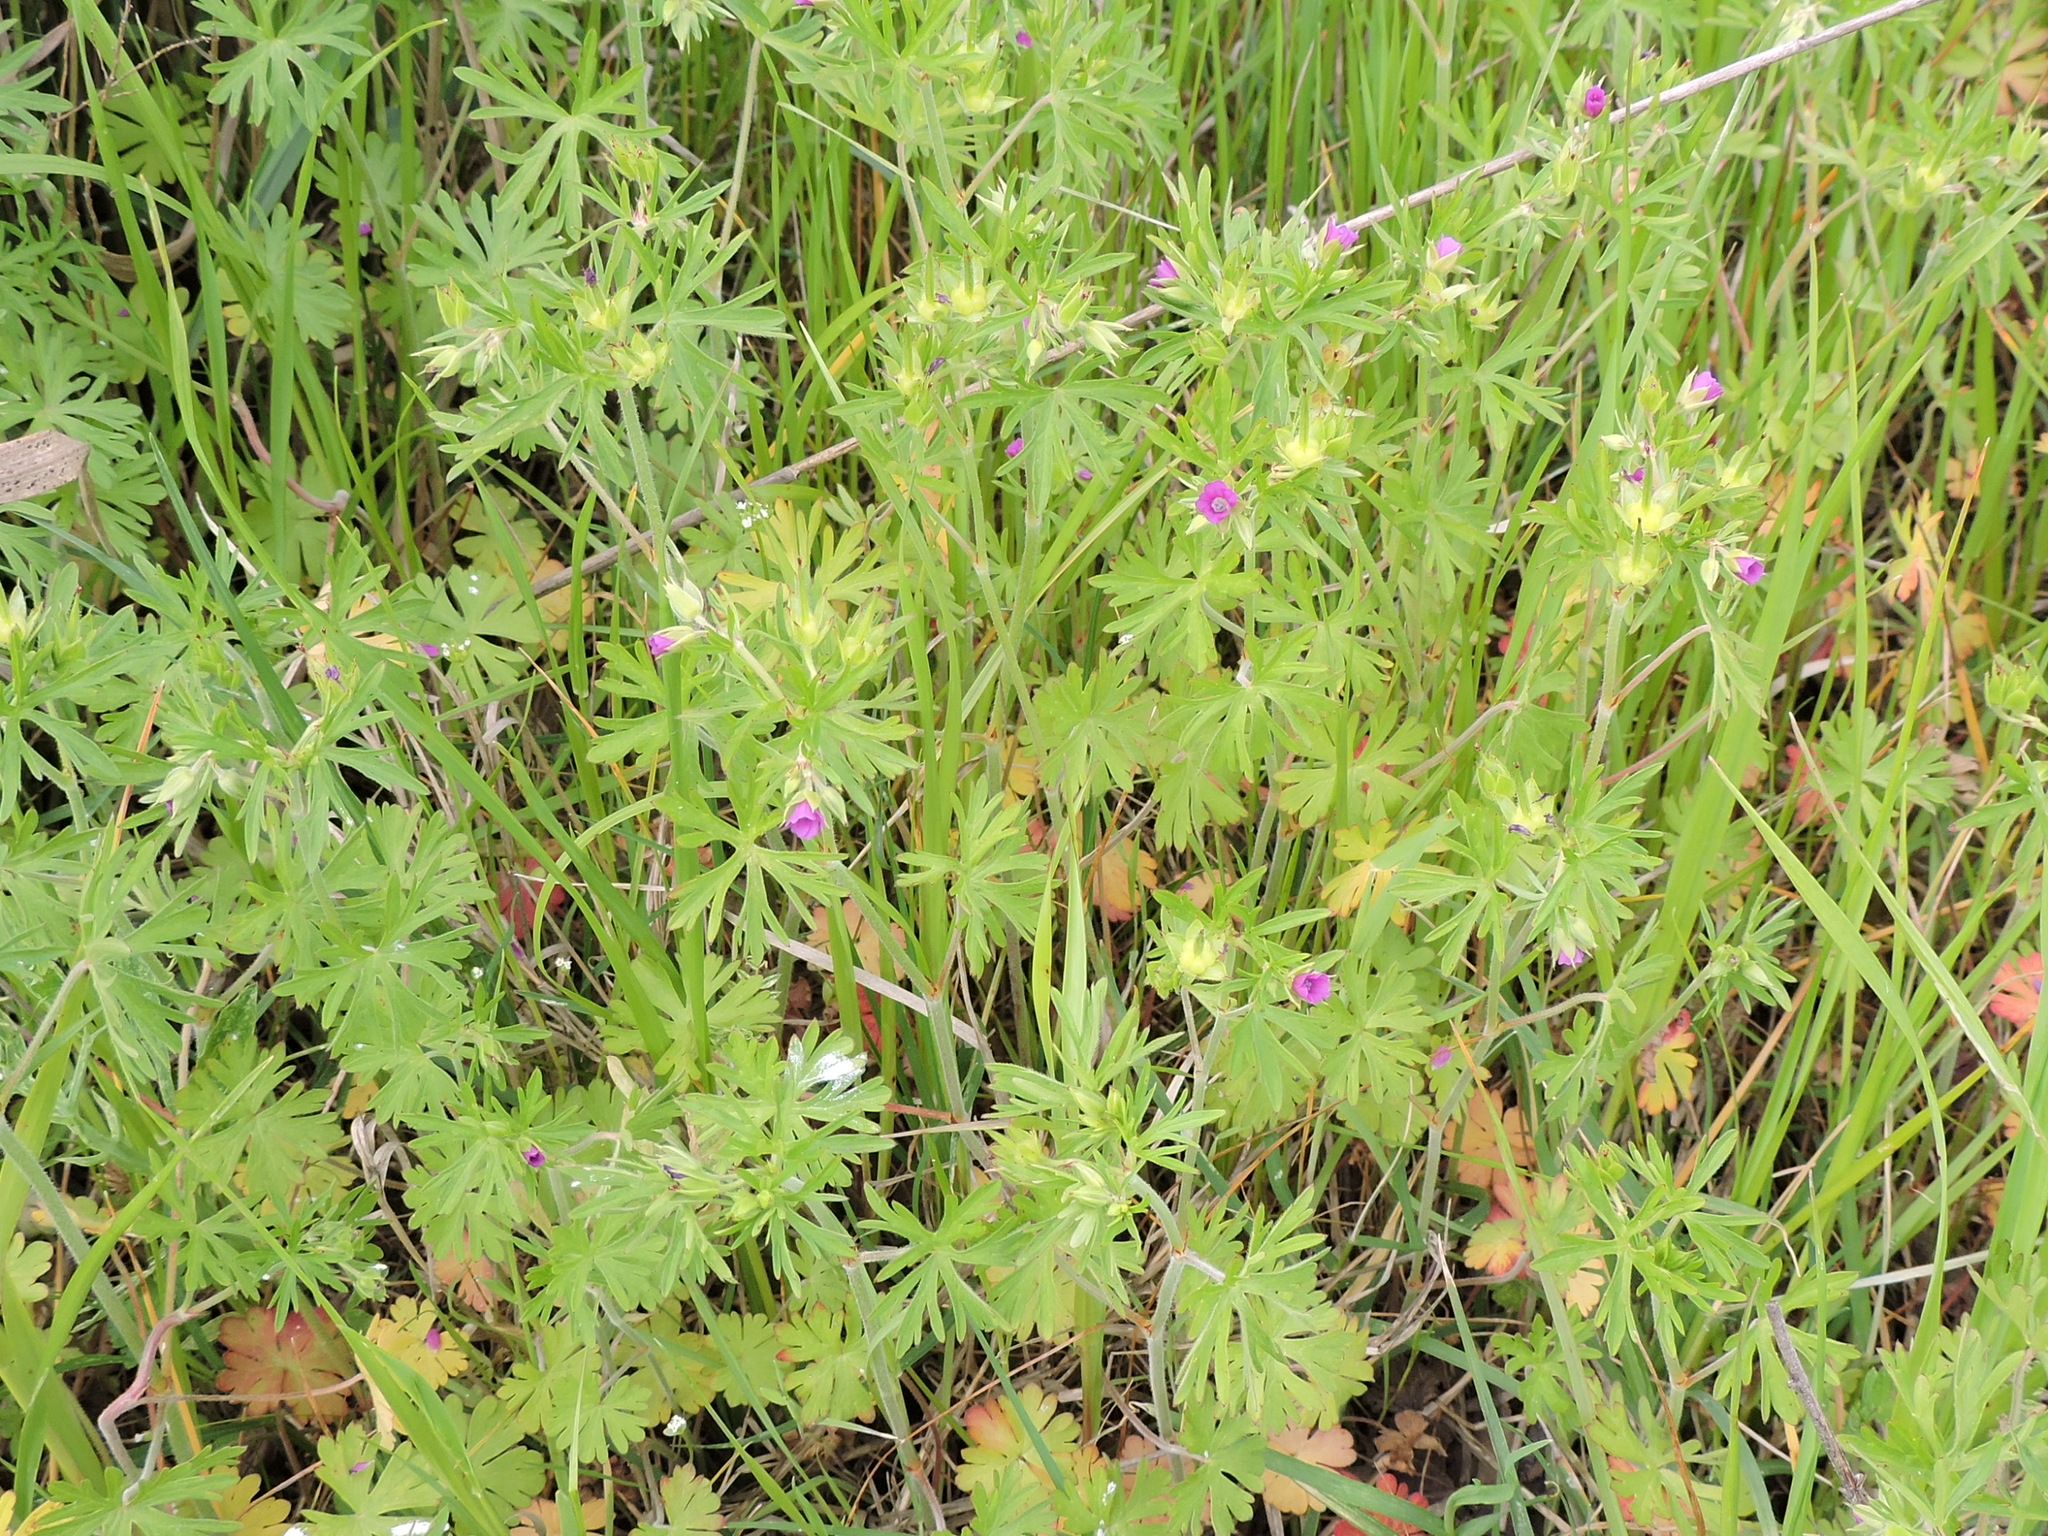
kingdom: Plantae
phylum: Tracheophyta
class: Magnoliopsida
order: Geraniales
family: Geraniaceae
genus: Geranium
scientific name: Geranium dissectum
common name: Cut-leaved crane's-bill
